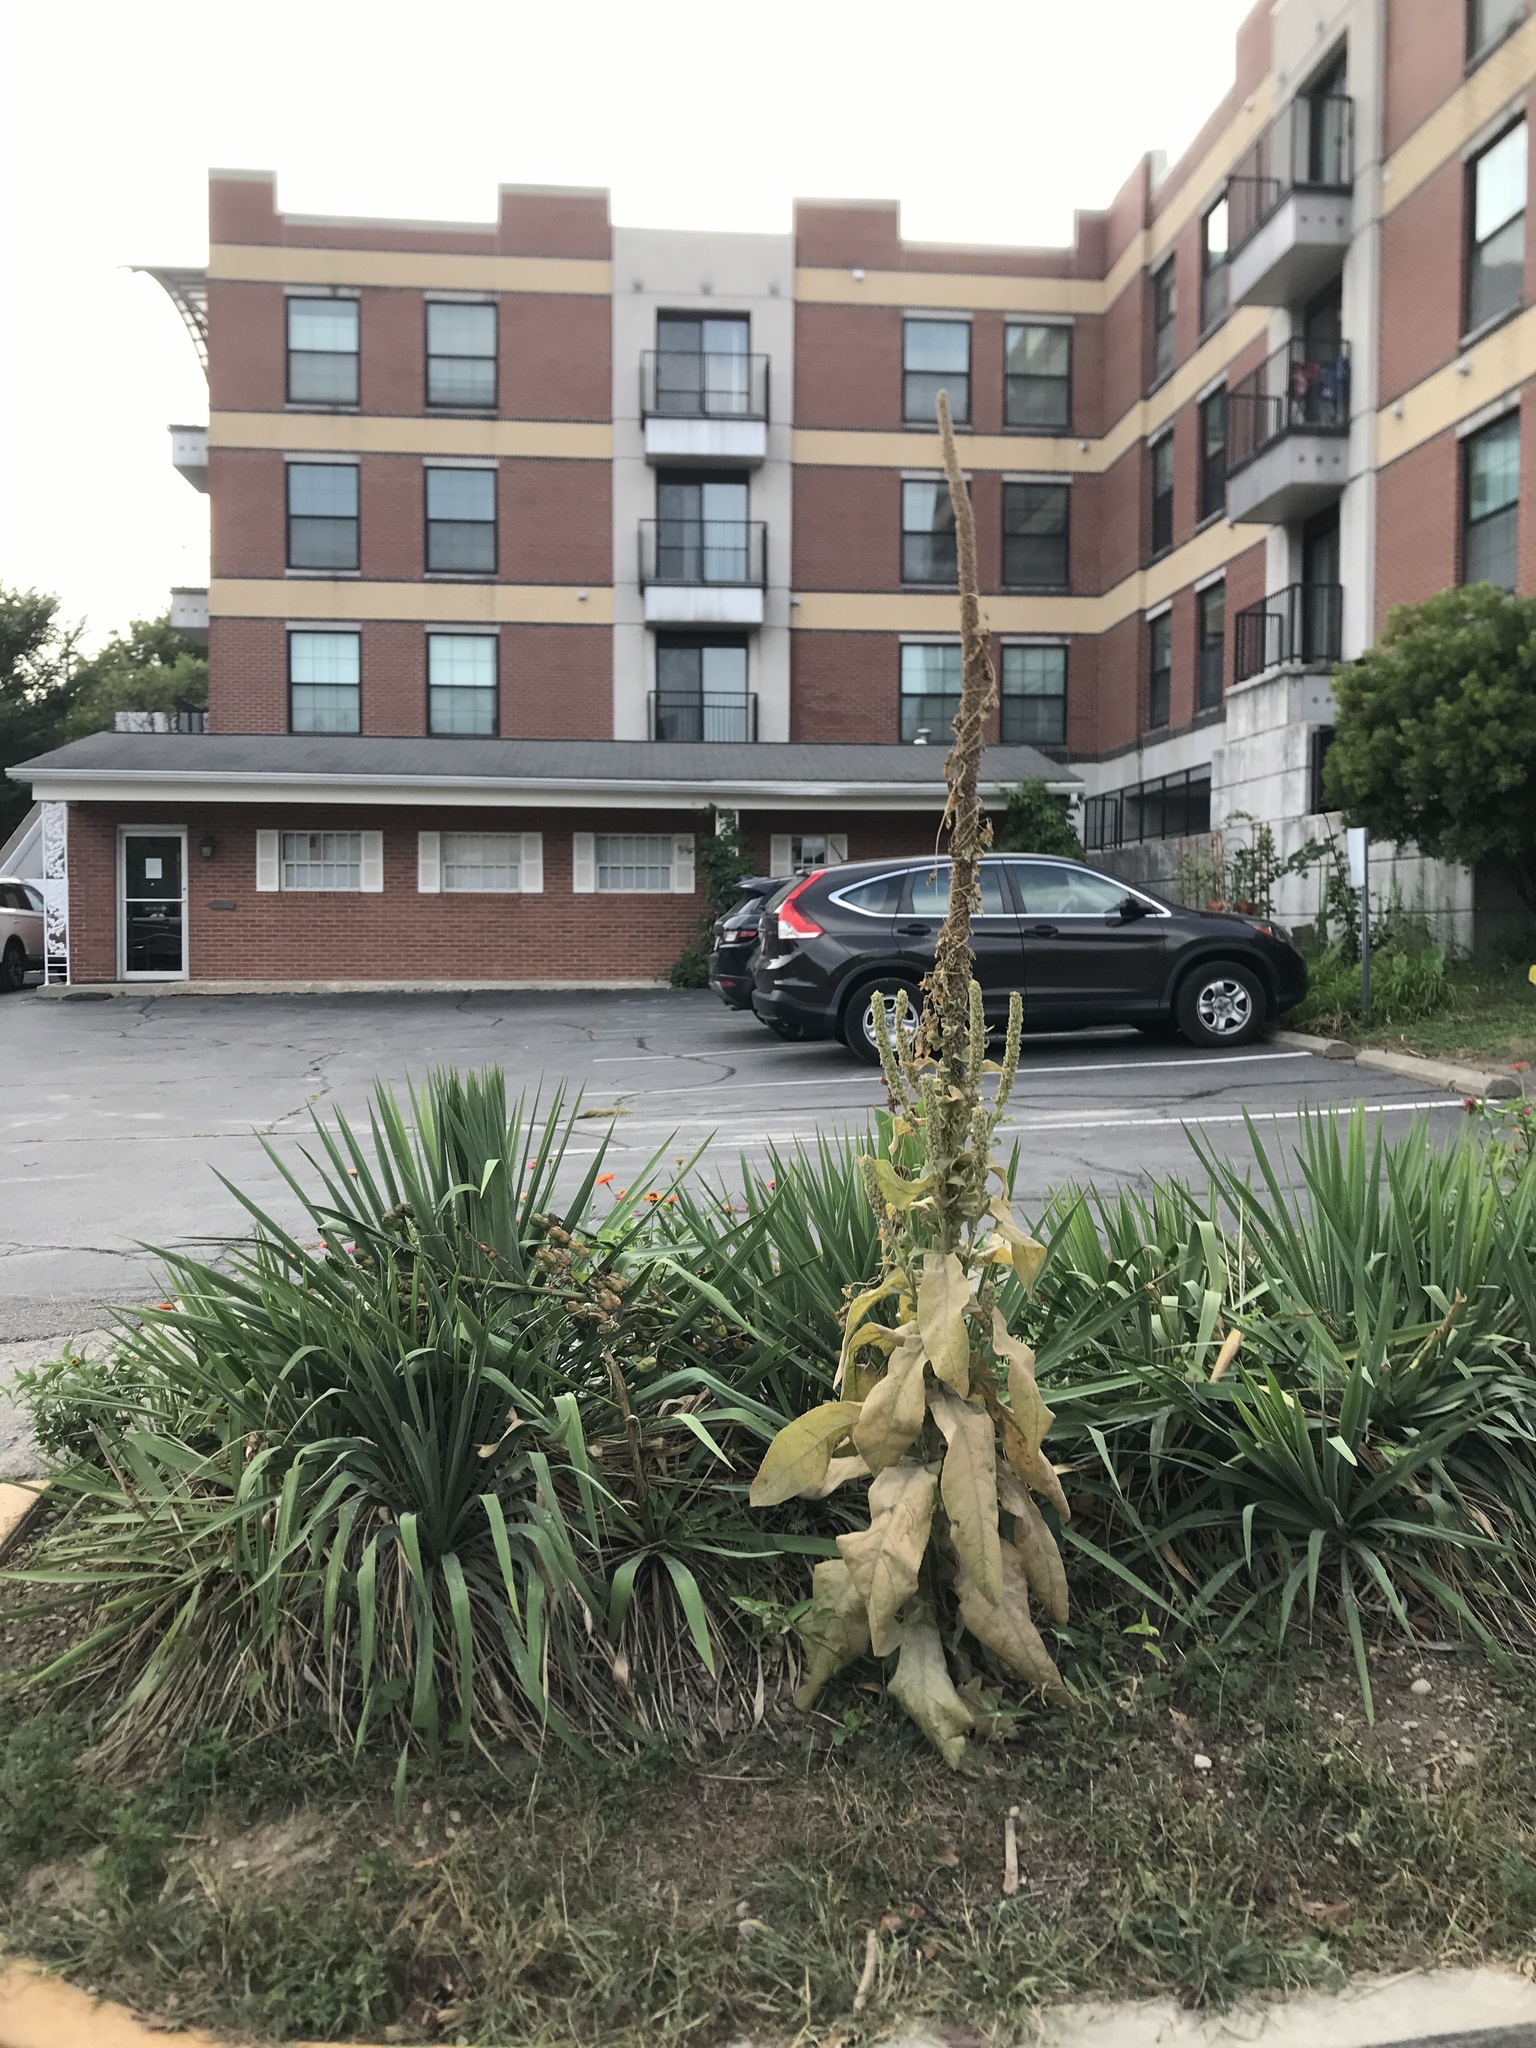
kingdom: Plantae
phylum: Tracheophyta
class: Magnoliopsida
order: Lamiales
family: Scrophulariaceae
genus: Verbascum
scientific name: Verbascum thapsus
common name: Common mullein
